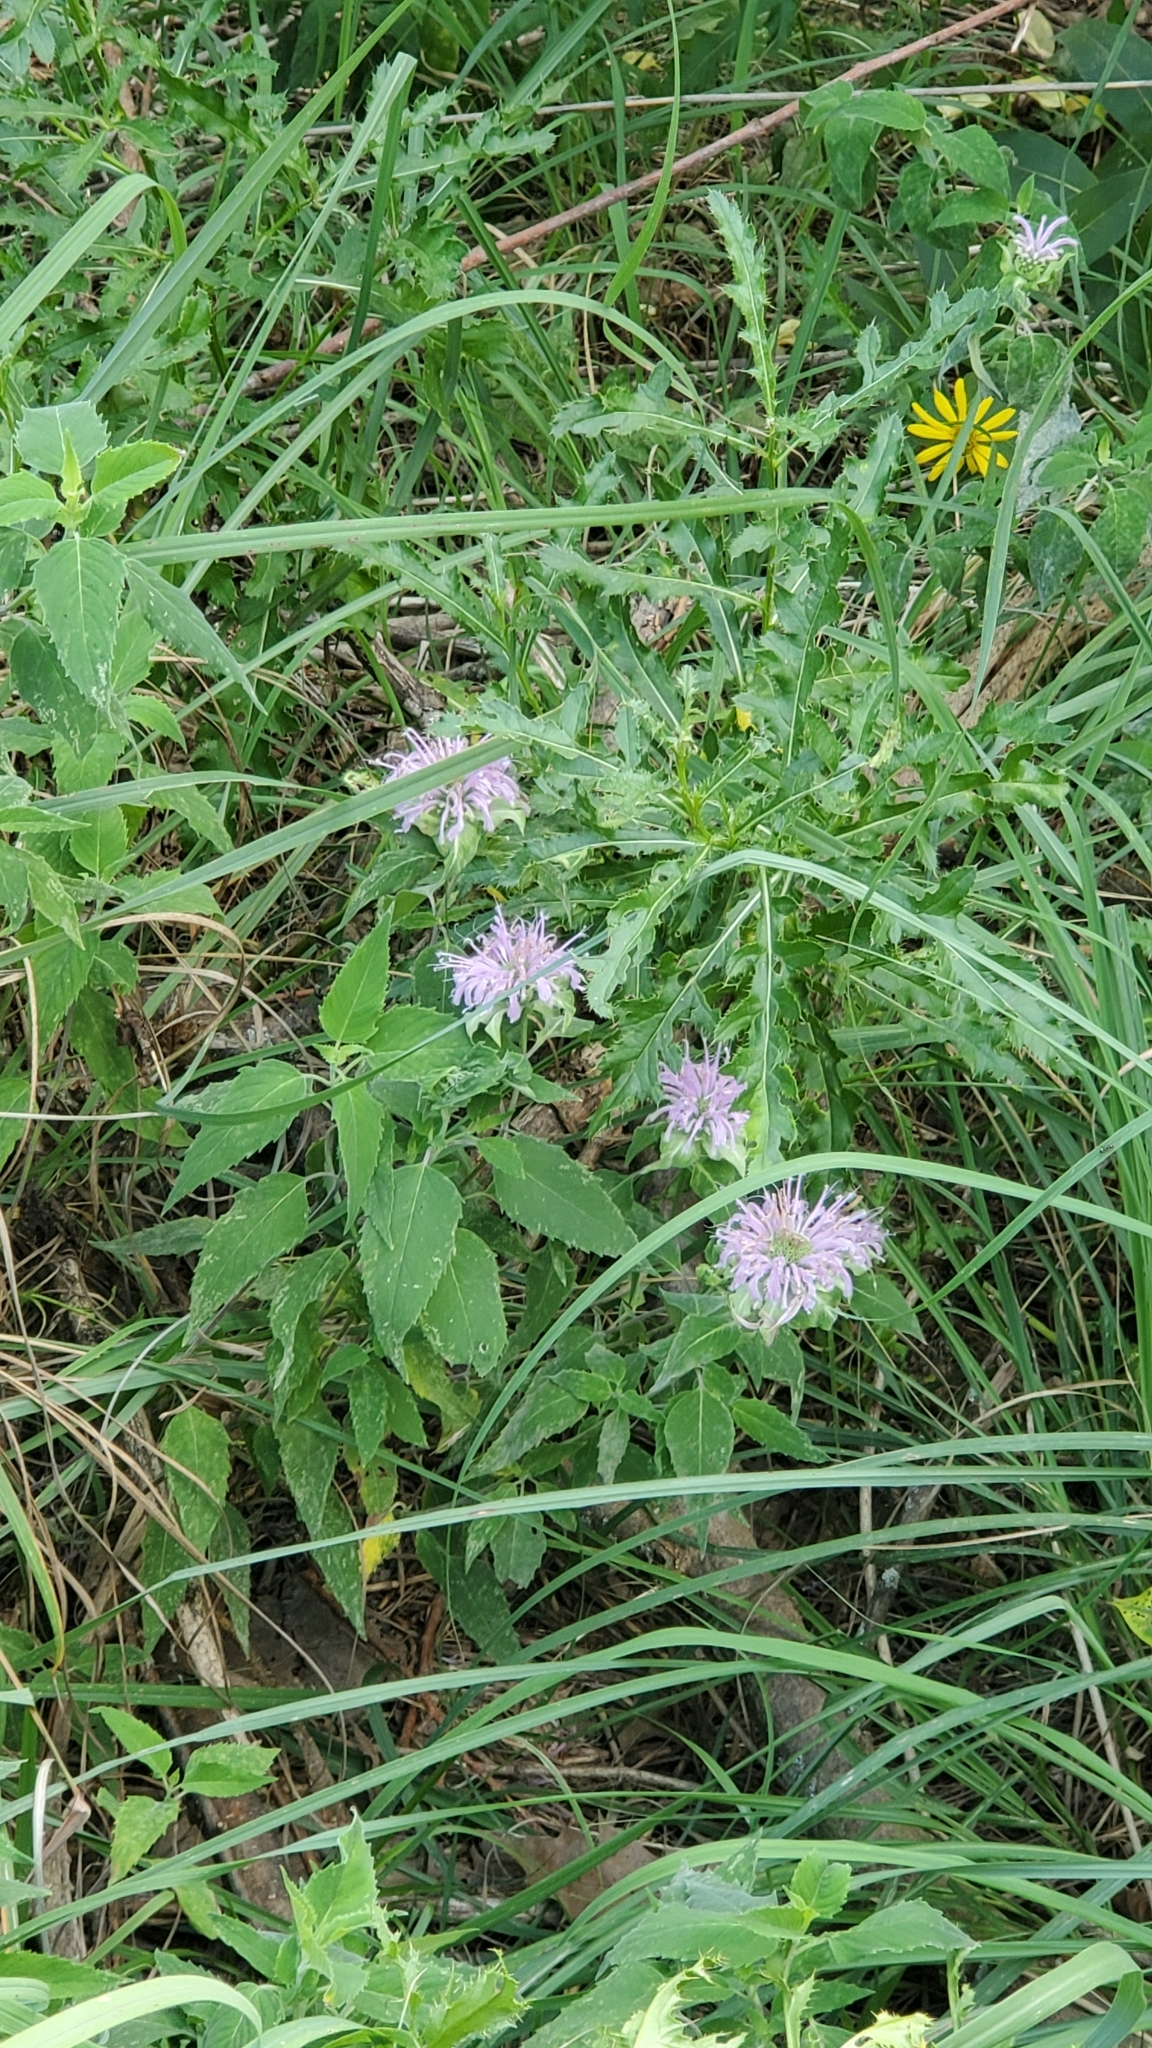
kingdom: Plantae
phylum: Tracheophyta
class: Magnoliopsida
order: Lamiales
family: Lamiaceae
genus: Monarda
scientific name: Monarda fistulosa
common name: Purple beebalm
